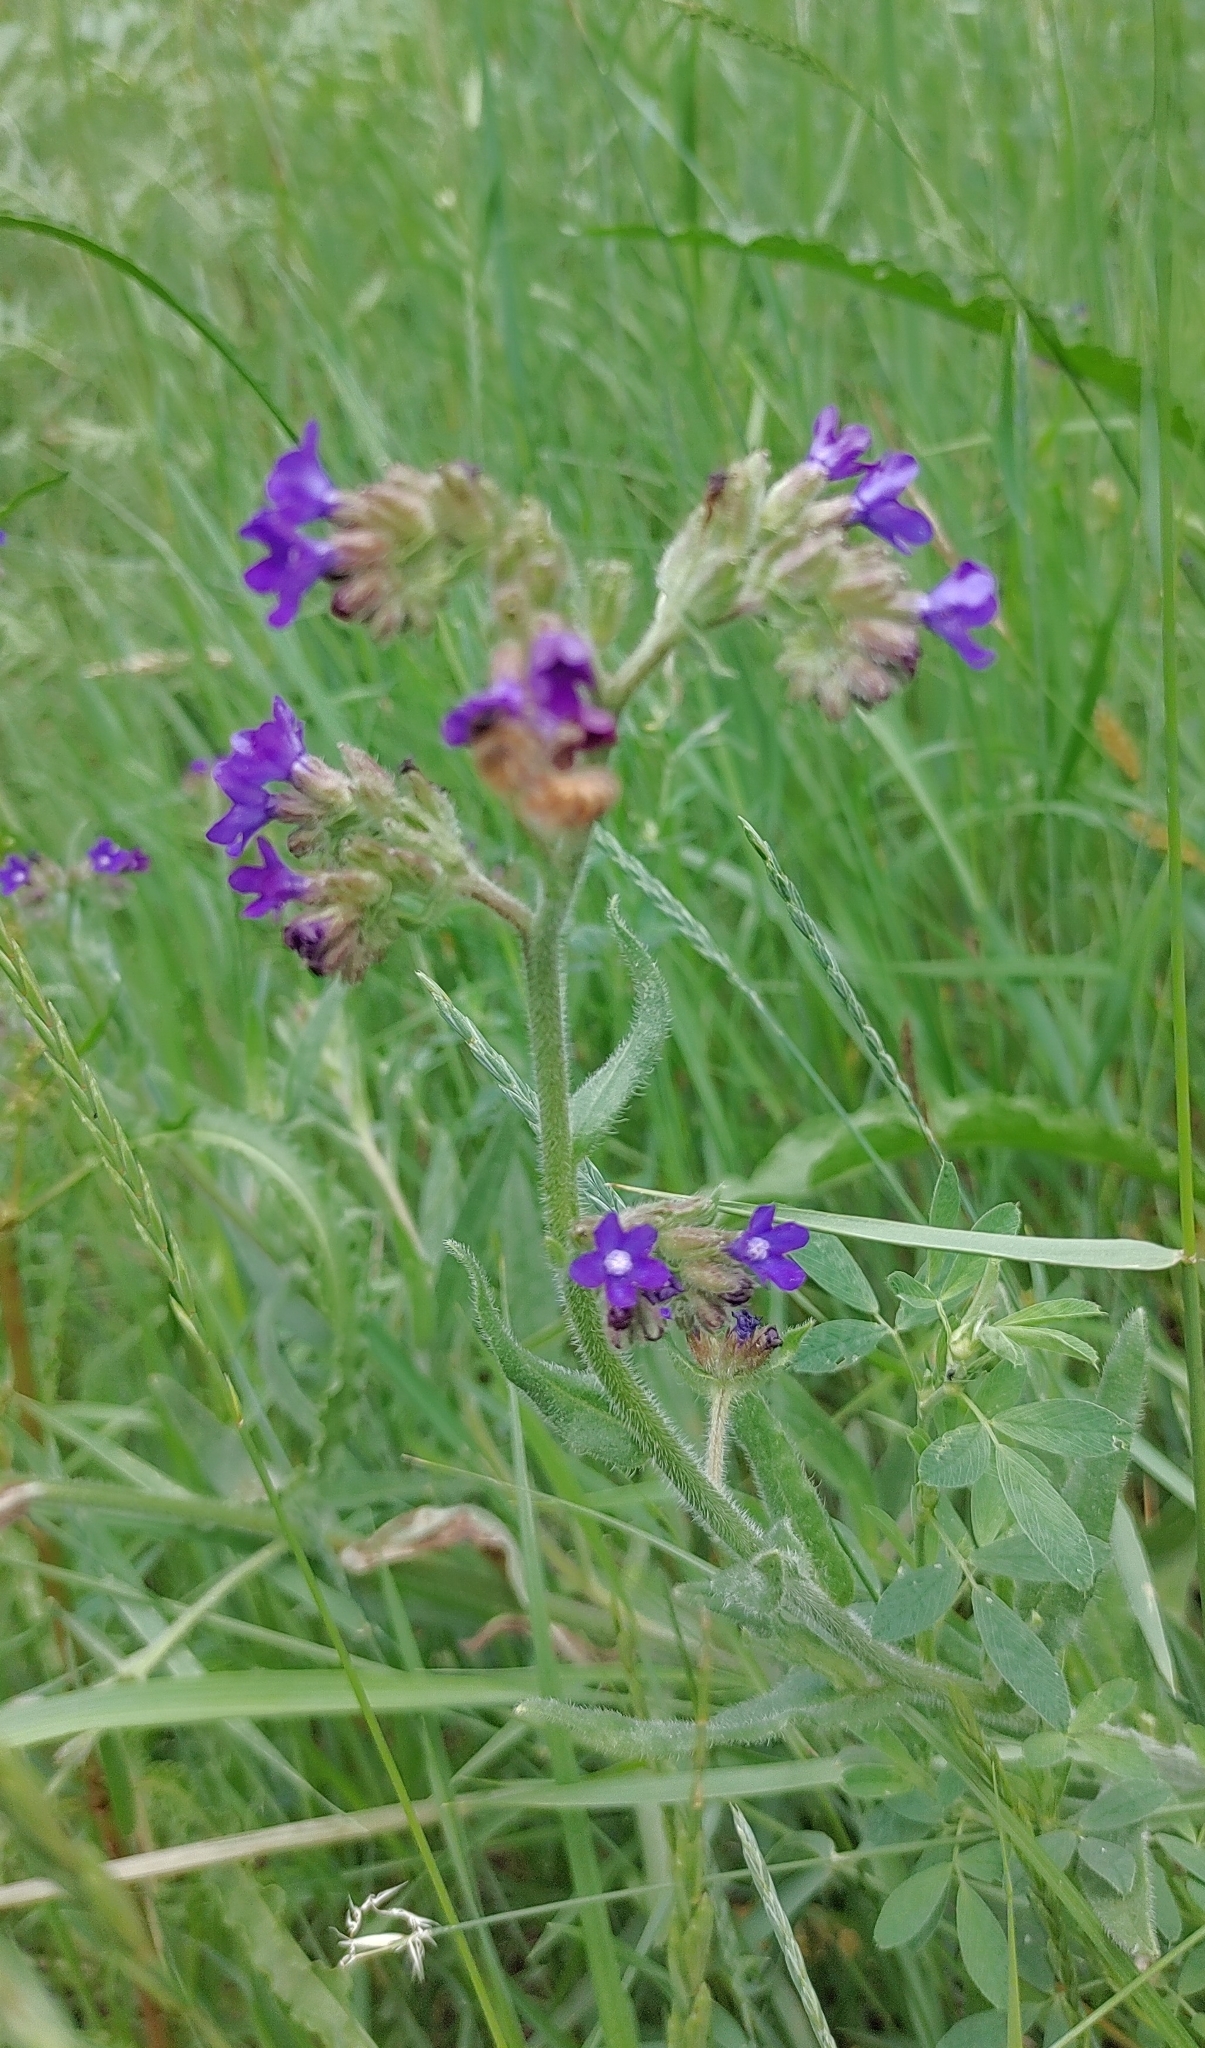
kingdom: Plantae
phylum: Tracheophyta
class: Magnoliopsida
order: Boraginales
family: Boraginaceae
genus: Anchusa
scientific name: Anchusa officinalis
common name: Alkanet
